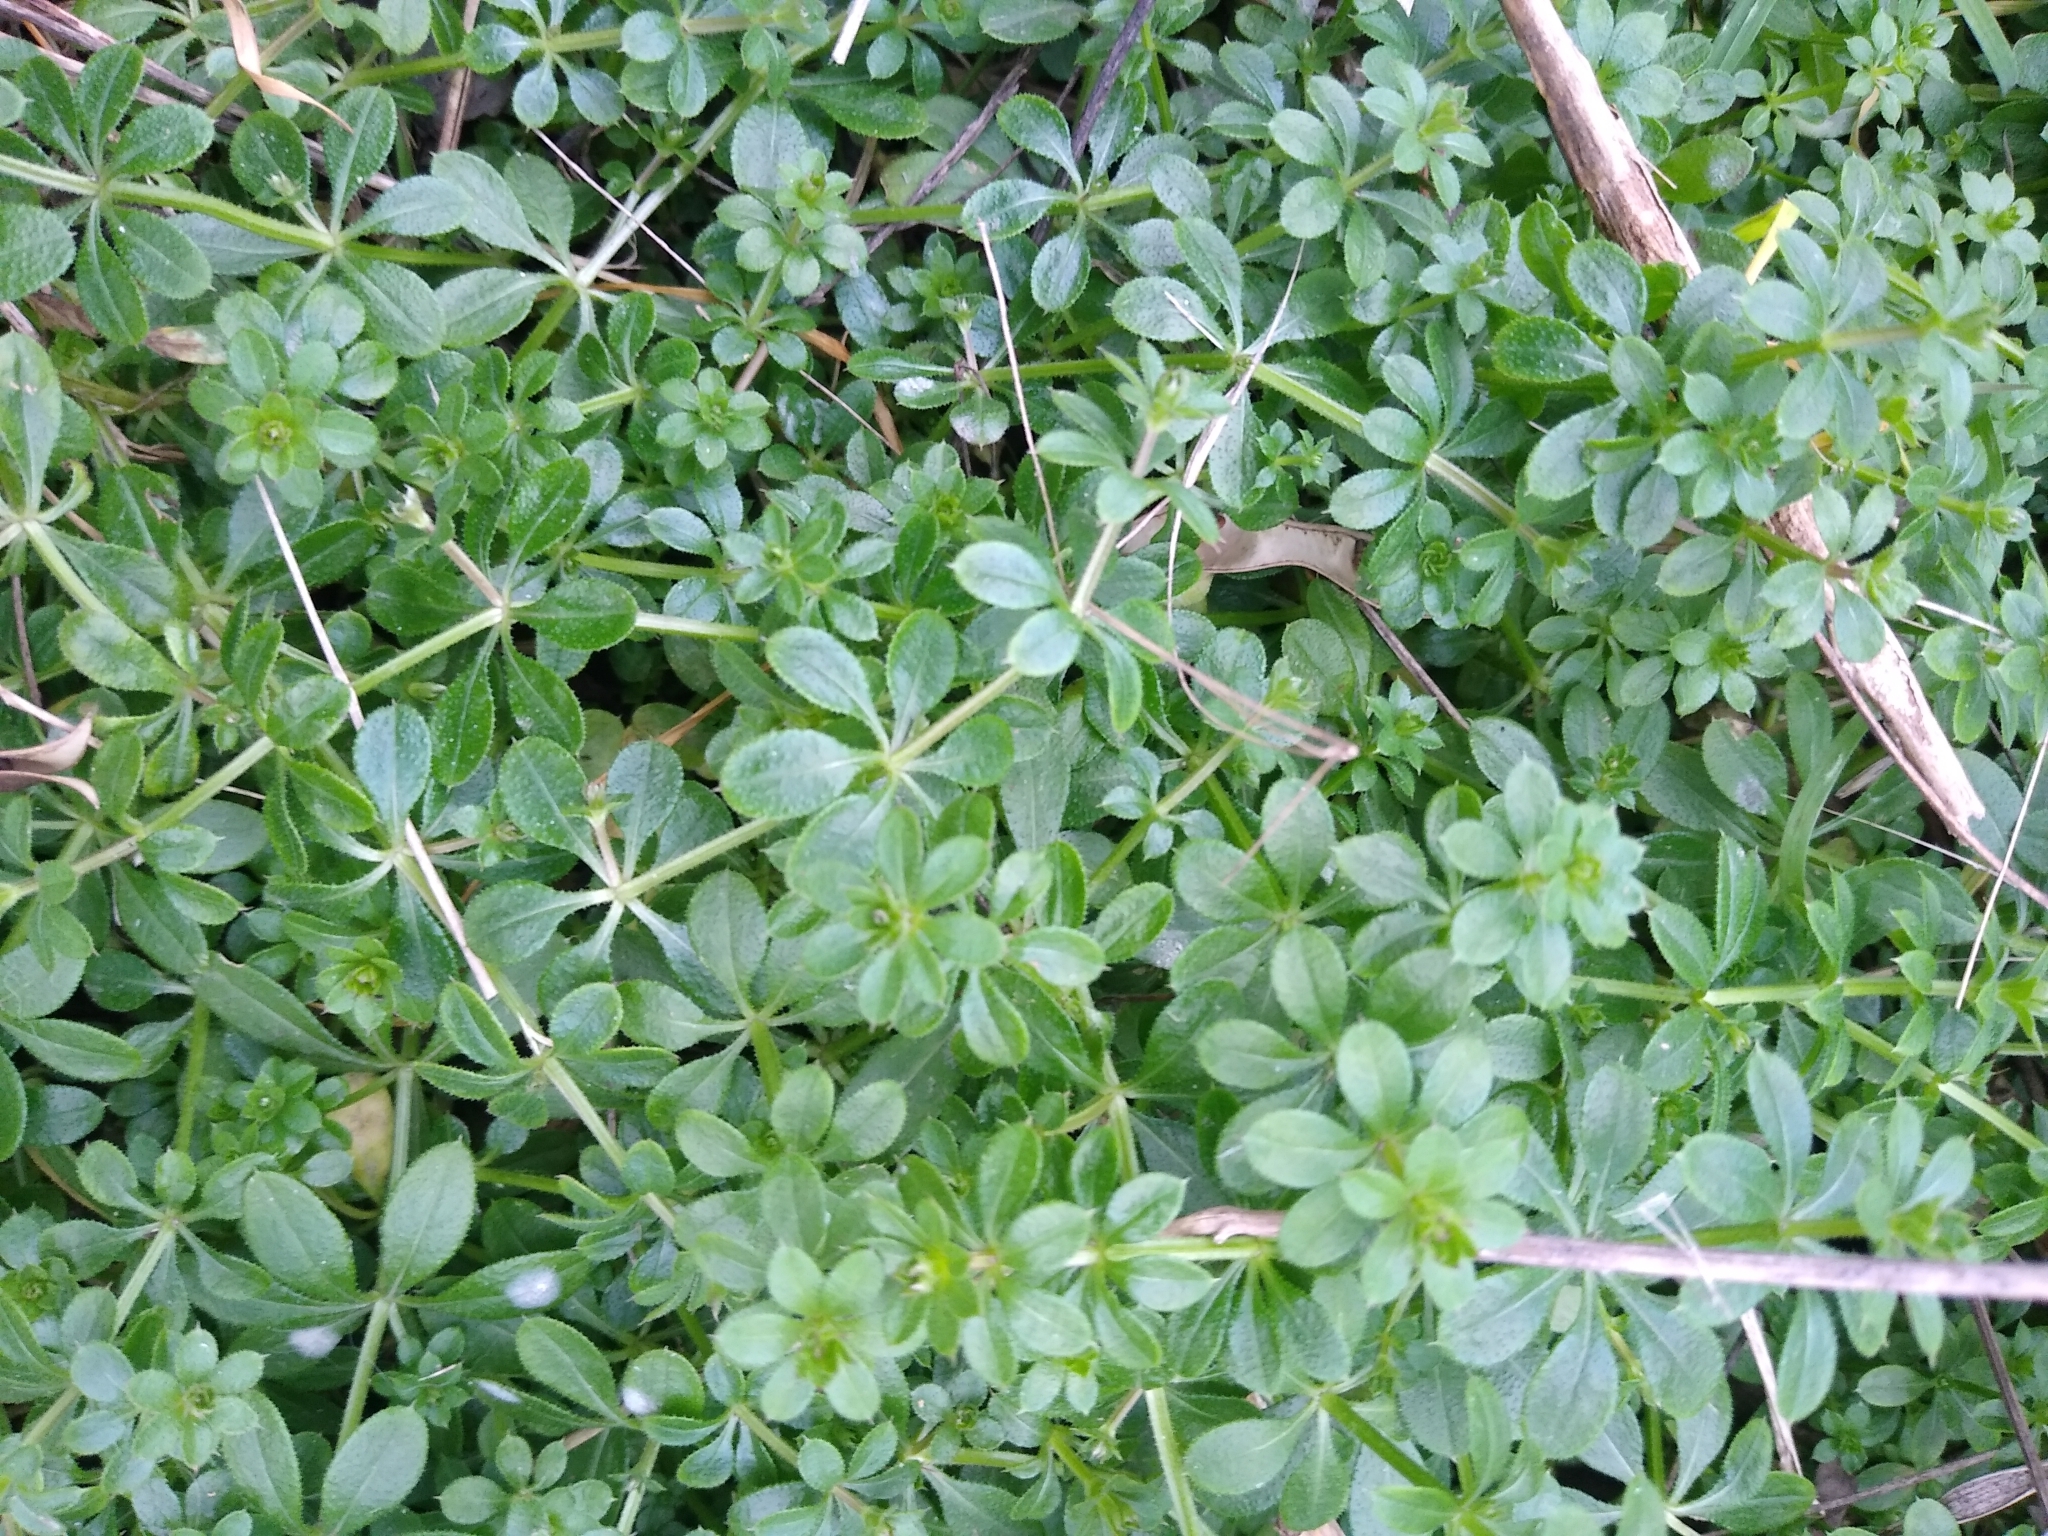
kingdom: Plantae
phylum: Tracheophyta
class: Magnoliopsida
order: Gentianales
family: Rubiaceae
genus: Galium
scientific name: Galium aparine
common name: Cleavers
